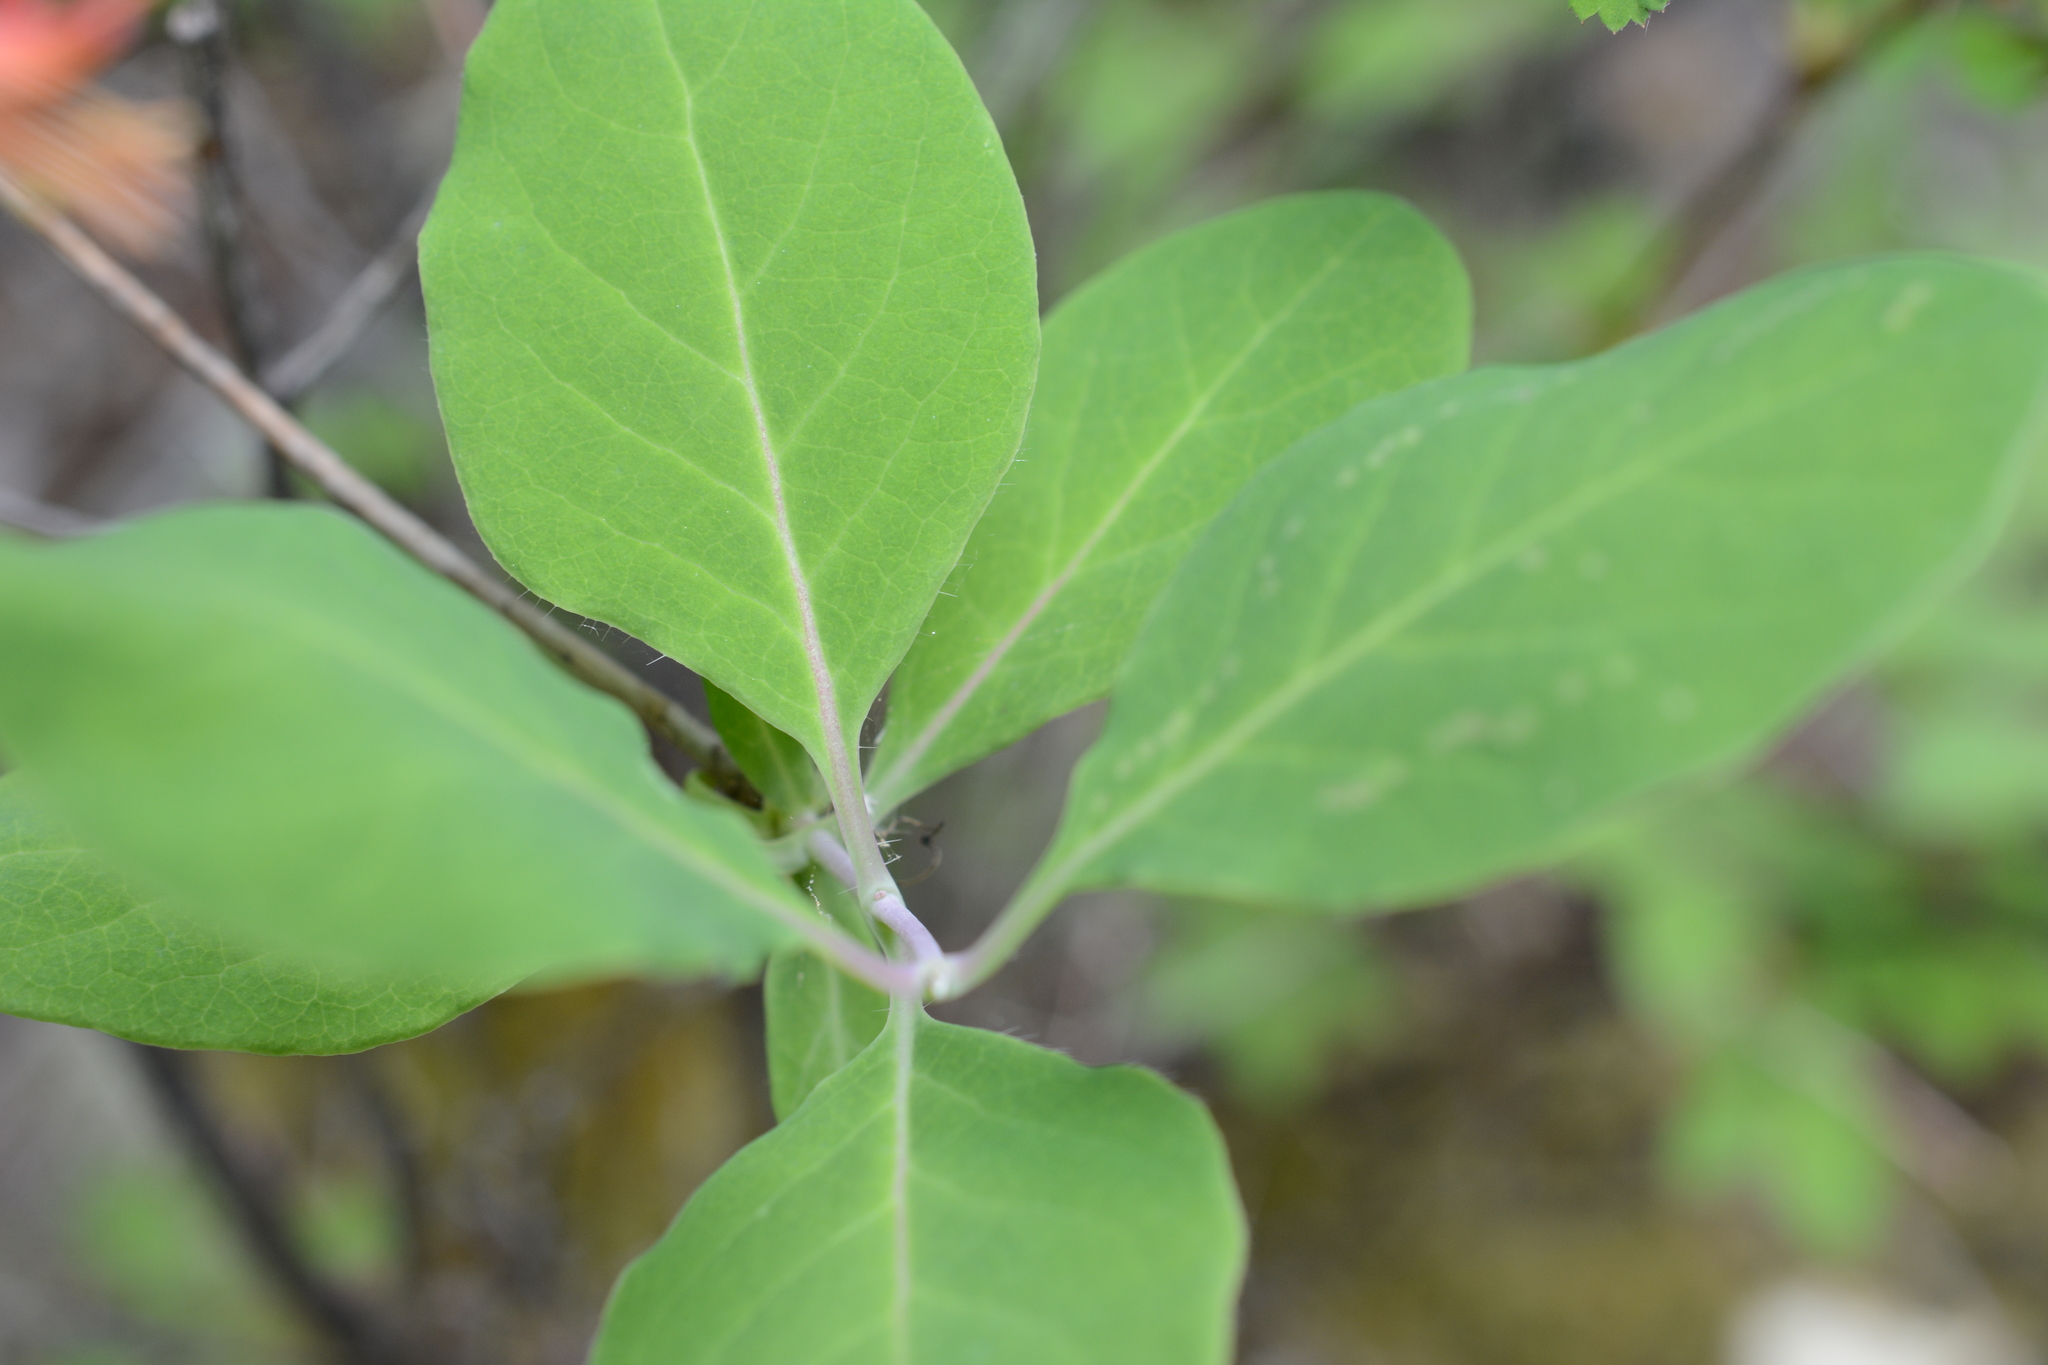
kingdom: Plantae
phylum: Tracheophyta
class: Magnoliopsida
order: Dipsacales
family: Caprifoliaceae
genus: Lonicera
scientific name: Lonicera ciliosa
